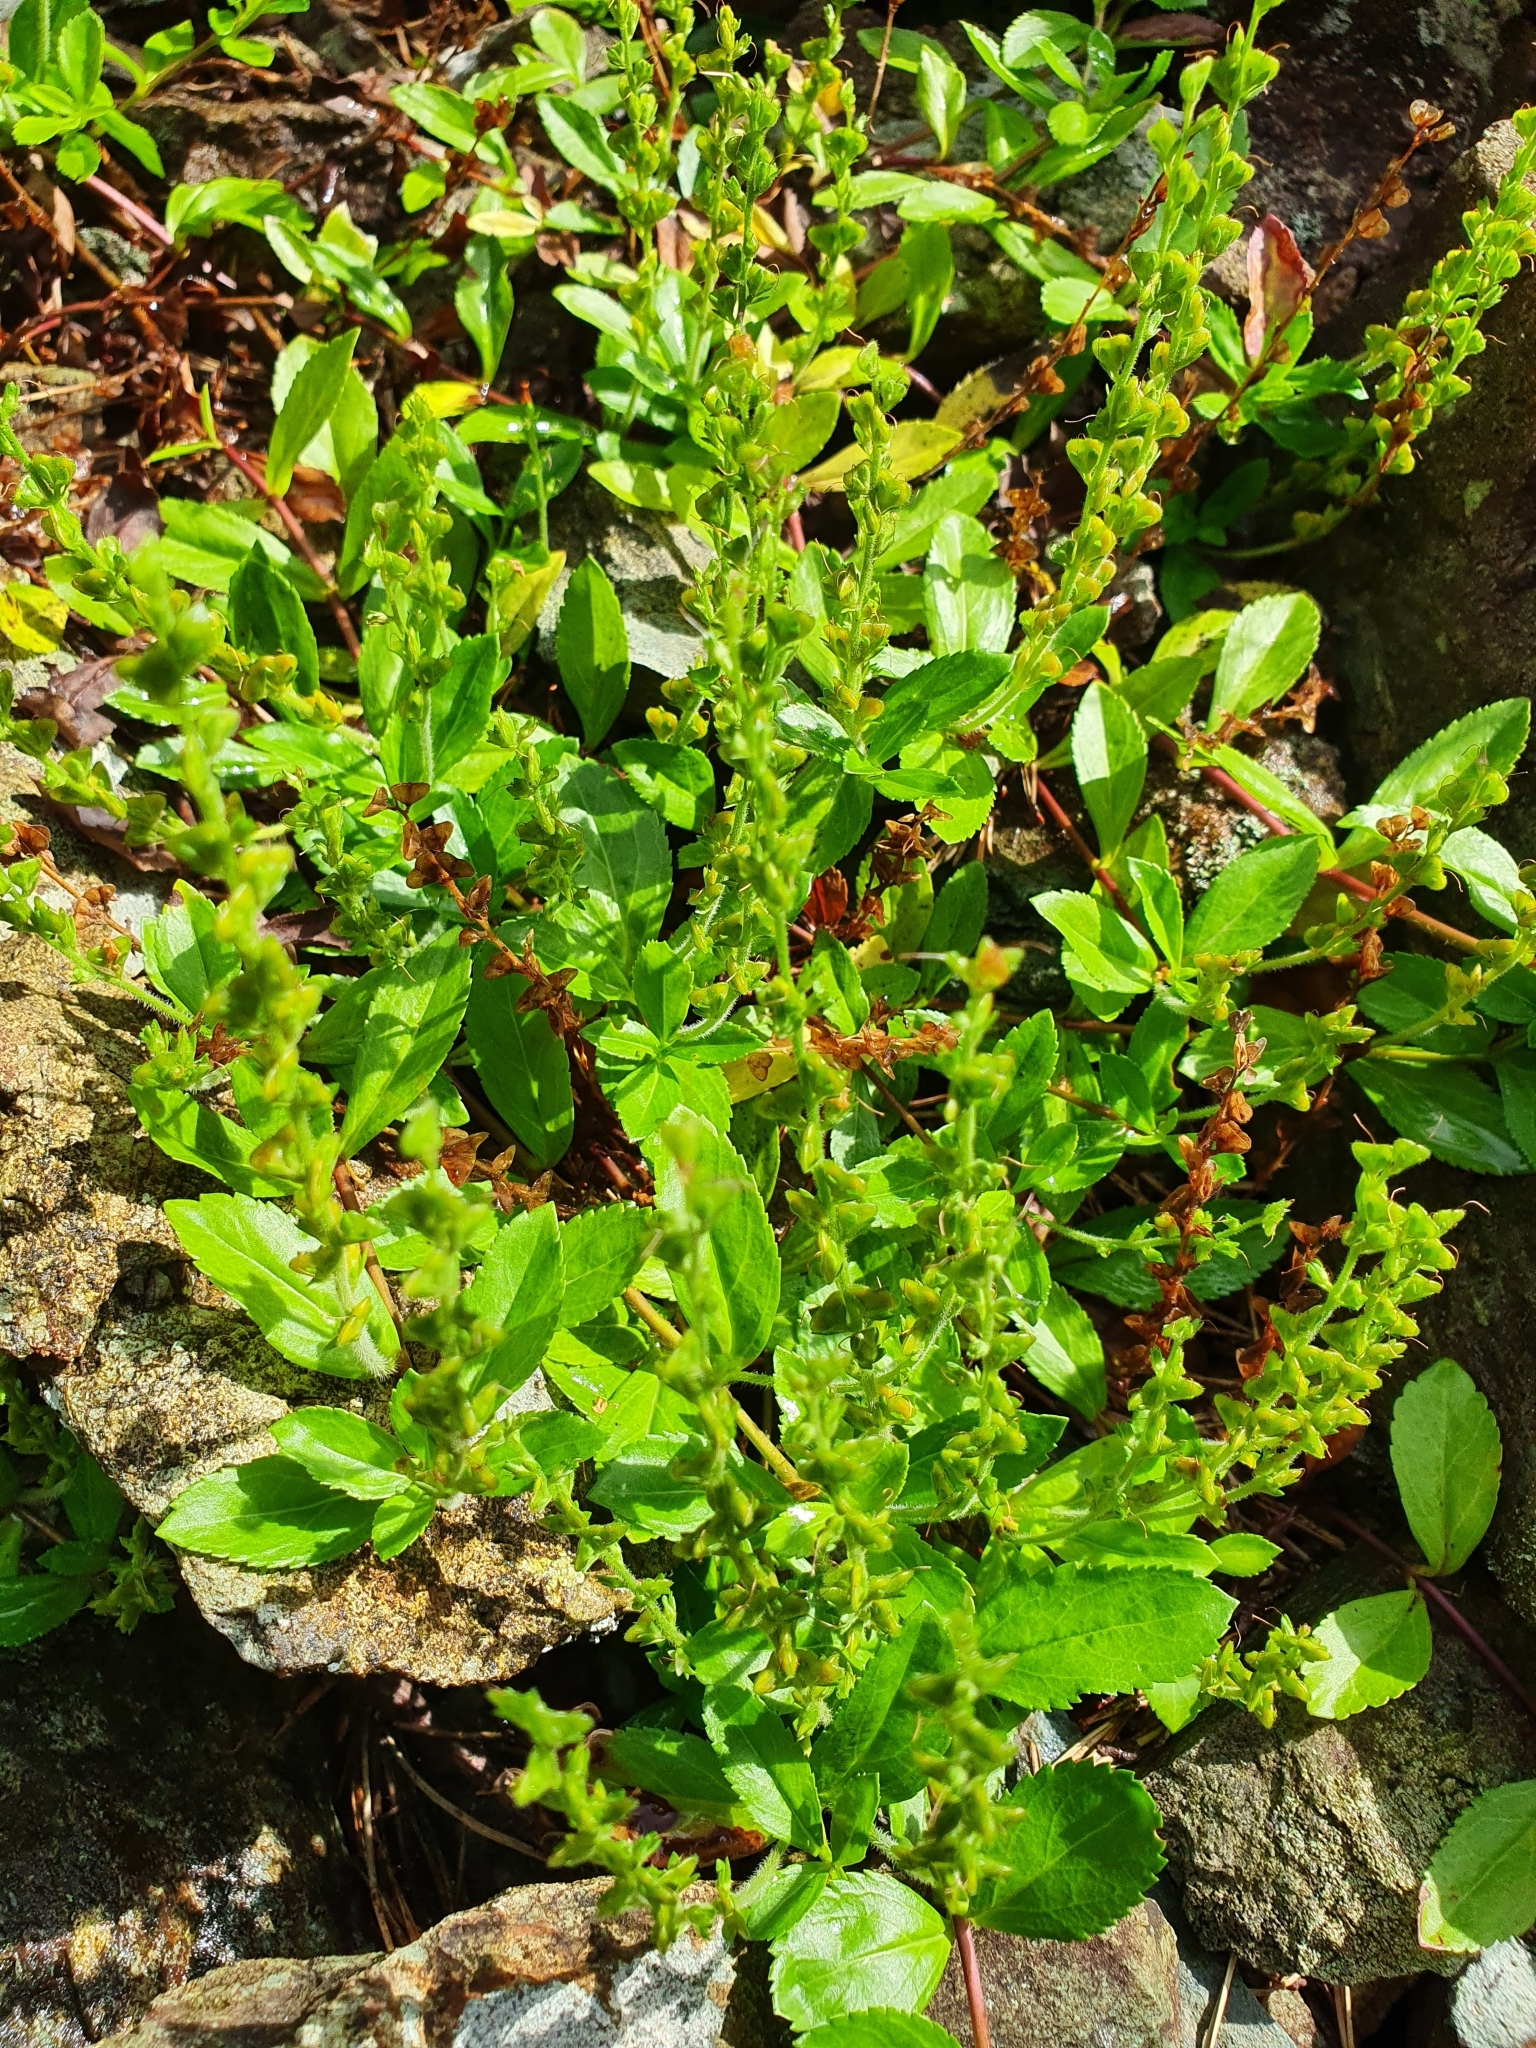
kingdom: Plantae
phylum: Tracheophyta
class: Magnoliopsida
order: Lamiales
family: Plantaginaceae
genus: Veronica
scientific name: Veronica officinalis
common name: Common speedwell
